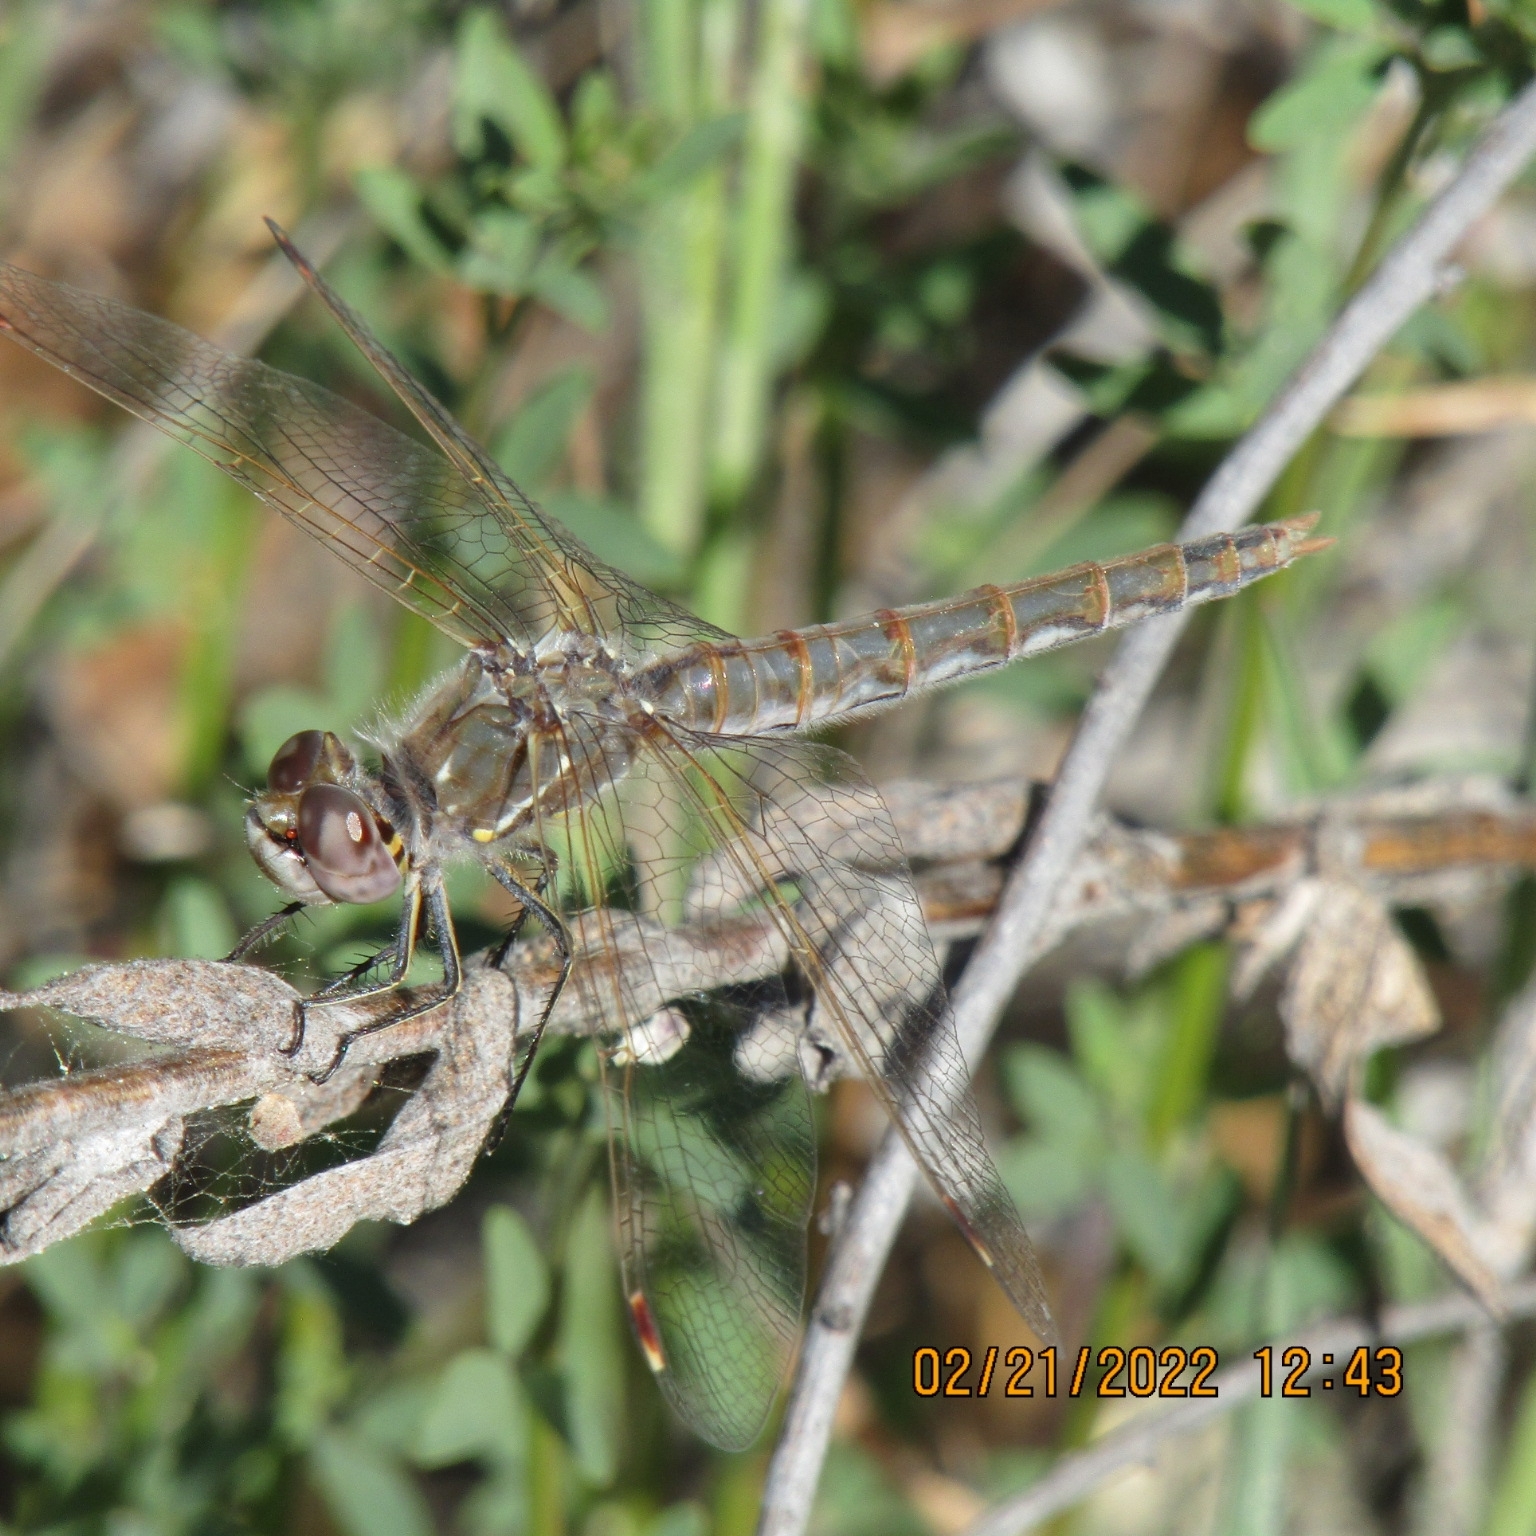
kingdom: Animalia
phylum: Arthropoda
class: Insecta
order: Odonata
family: Libellulidae
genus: Sympetrum
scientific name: Sympetrum corruptum
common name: Variegated meadowhawk
